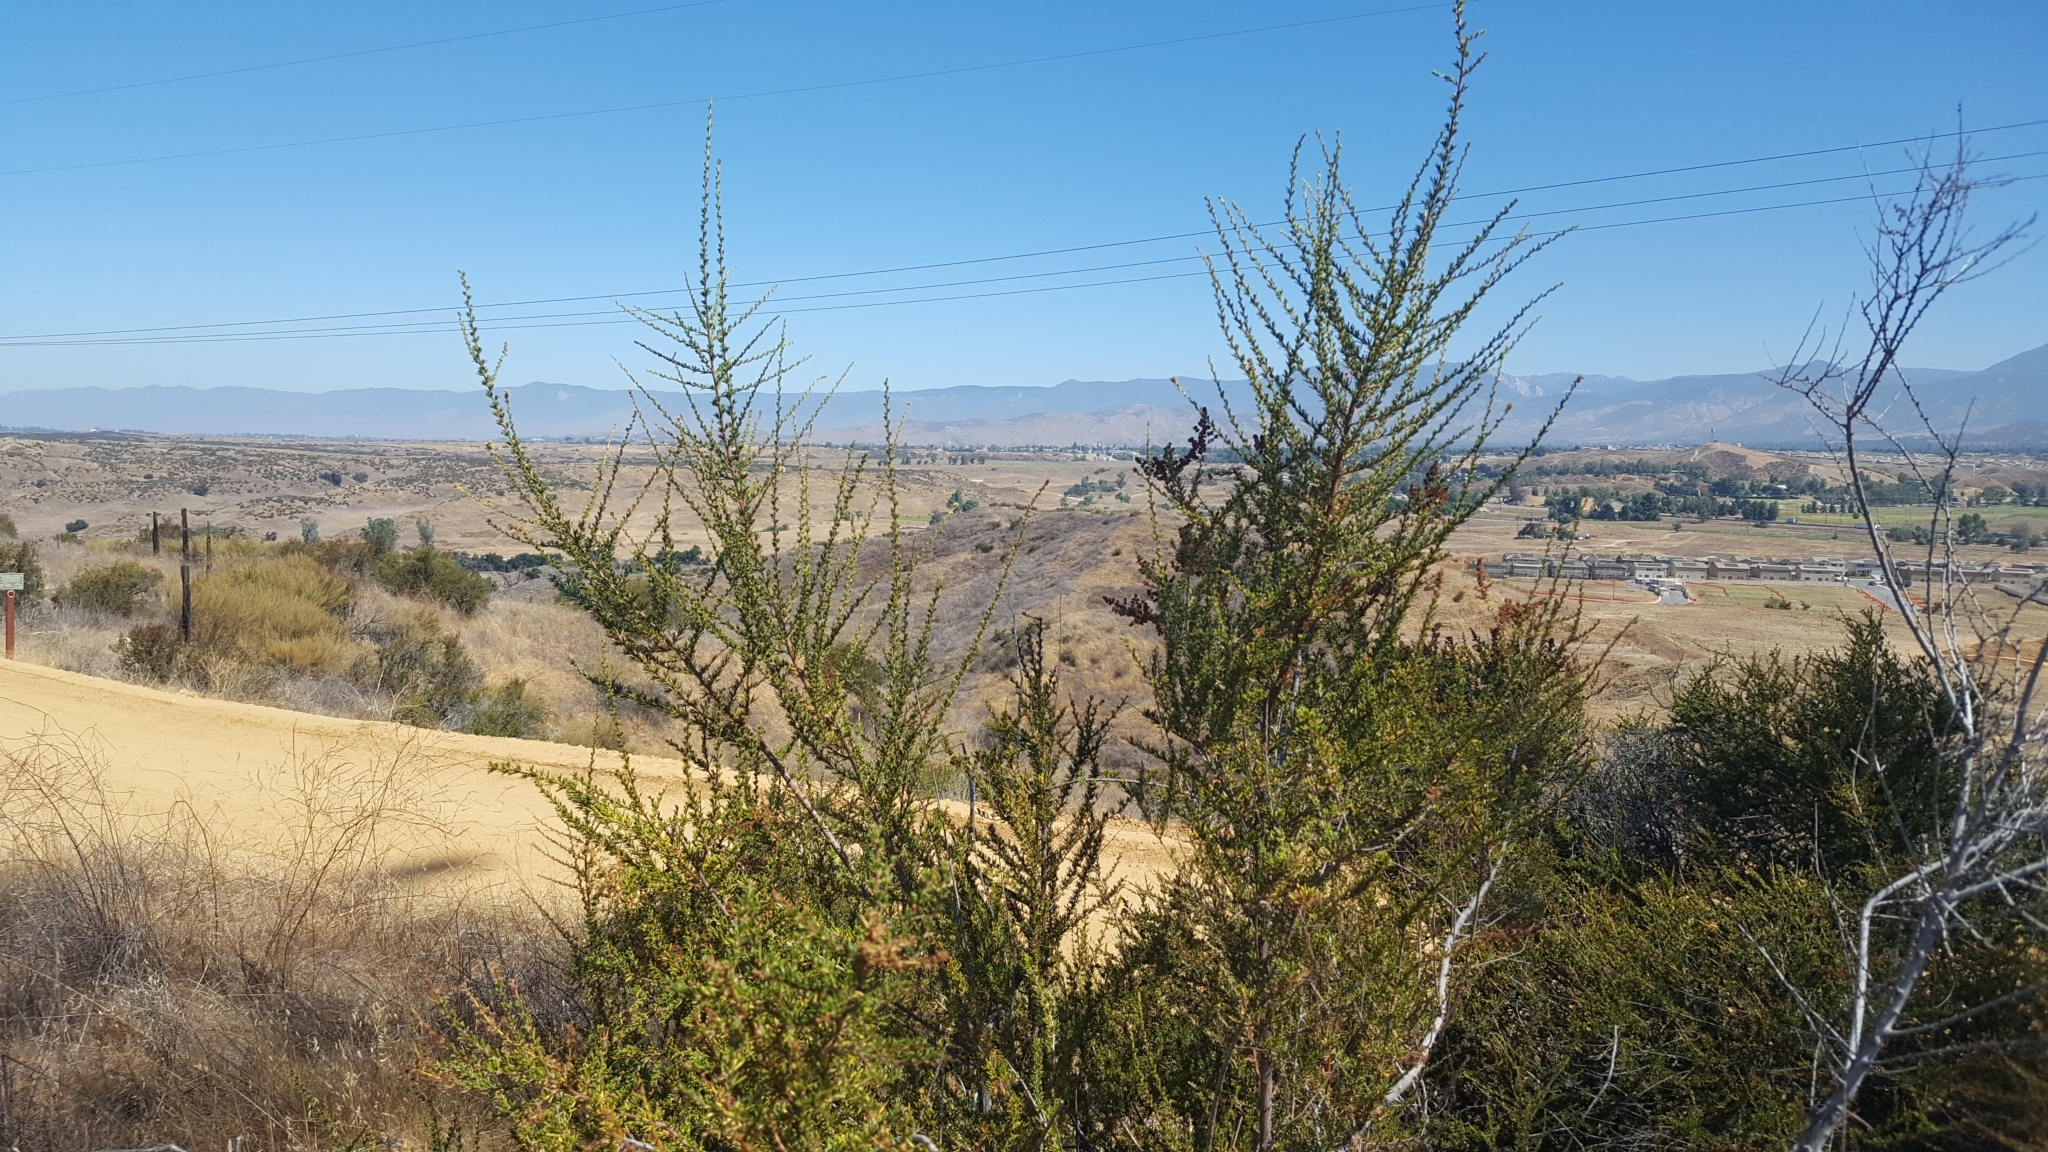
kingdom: Plantae
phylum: Tracheophyta
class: Magnoliopsida
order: Rosales
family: Rosaceae
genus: Adenostoma
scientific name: Adenostoma fasciculatum
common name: Chamise
